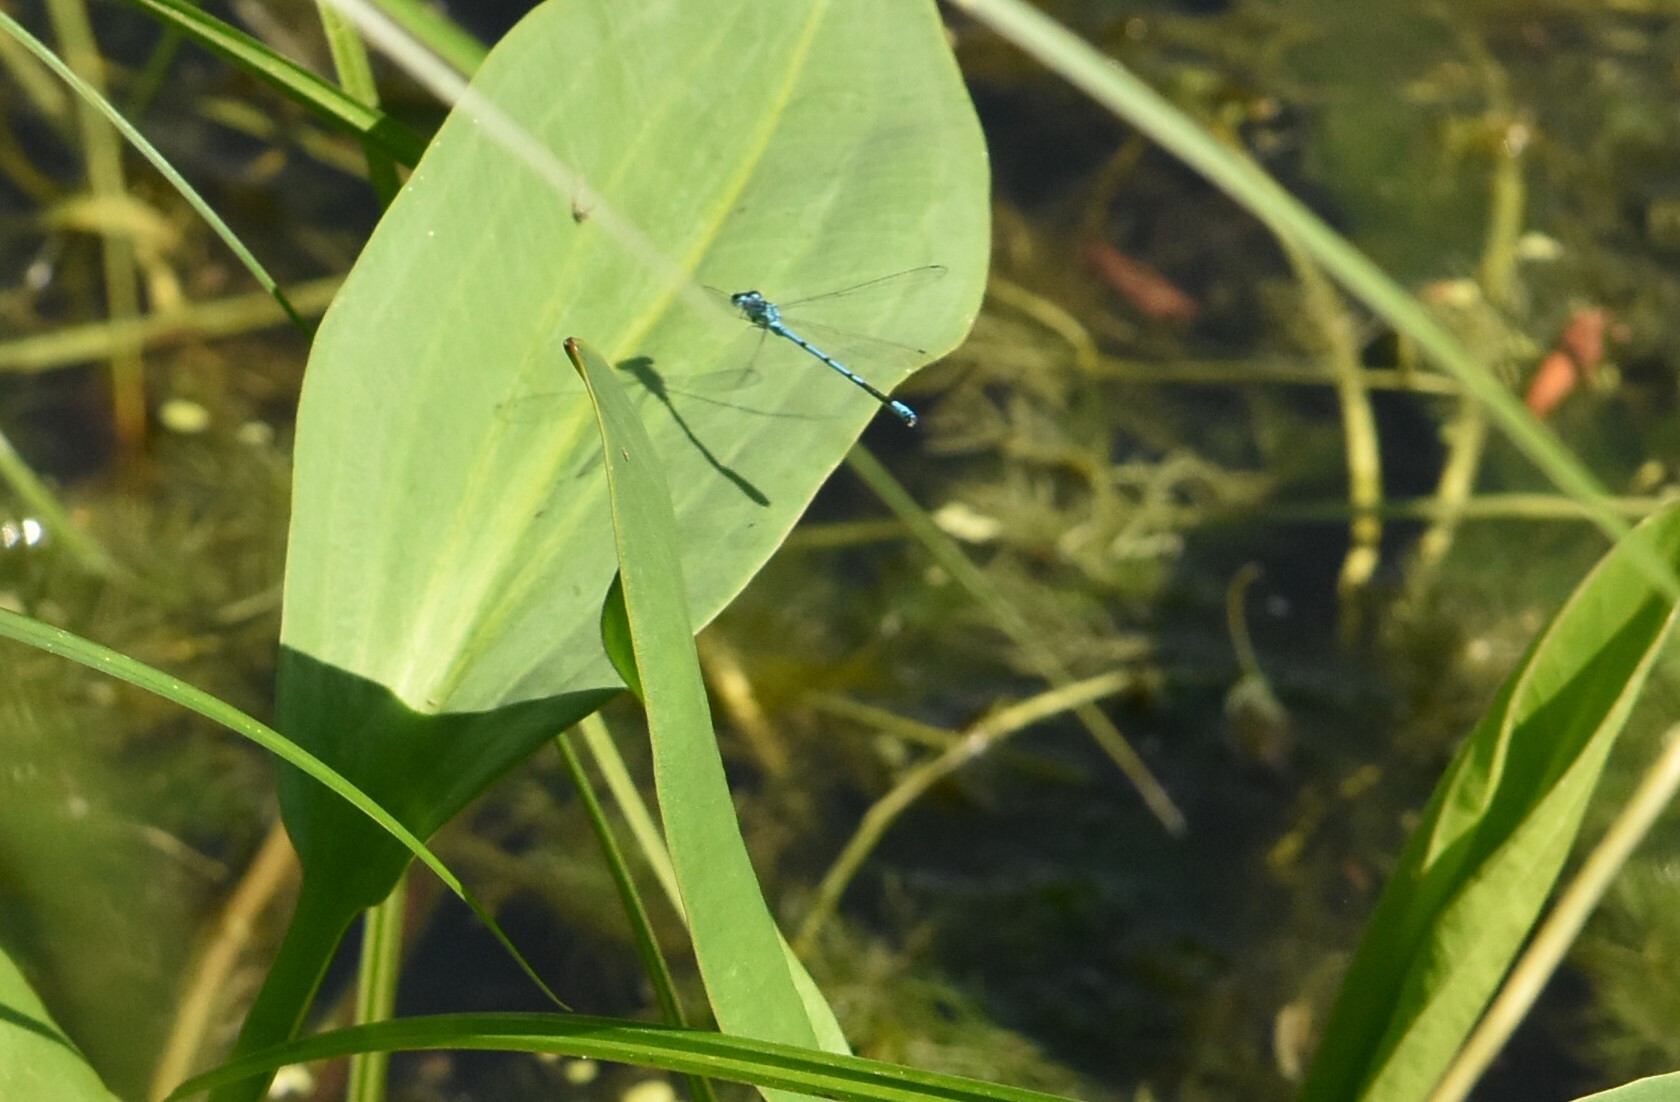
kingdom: Animalia
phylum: Arthropoda
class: Insecta
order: Odonata
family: Coenagrionidae
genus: Coenagrion
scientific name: Coenagrion puella
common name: Azure damselfly
